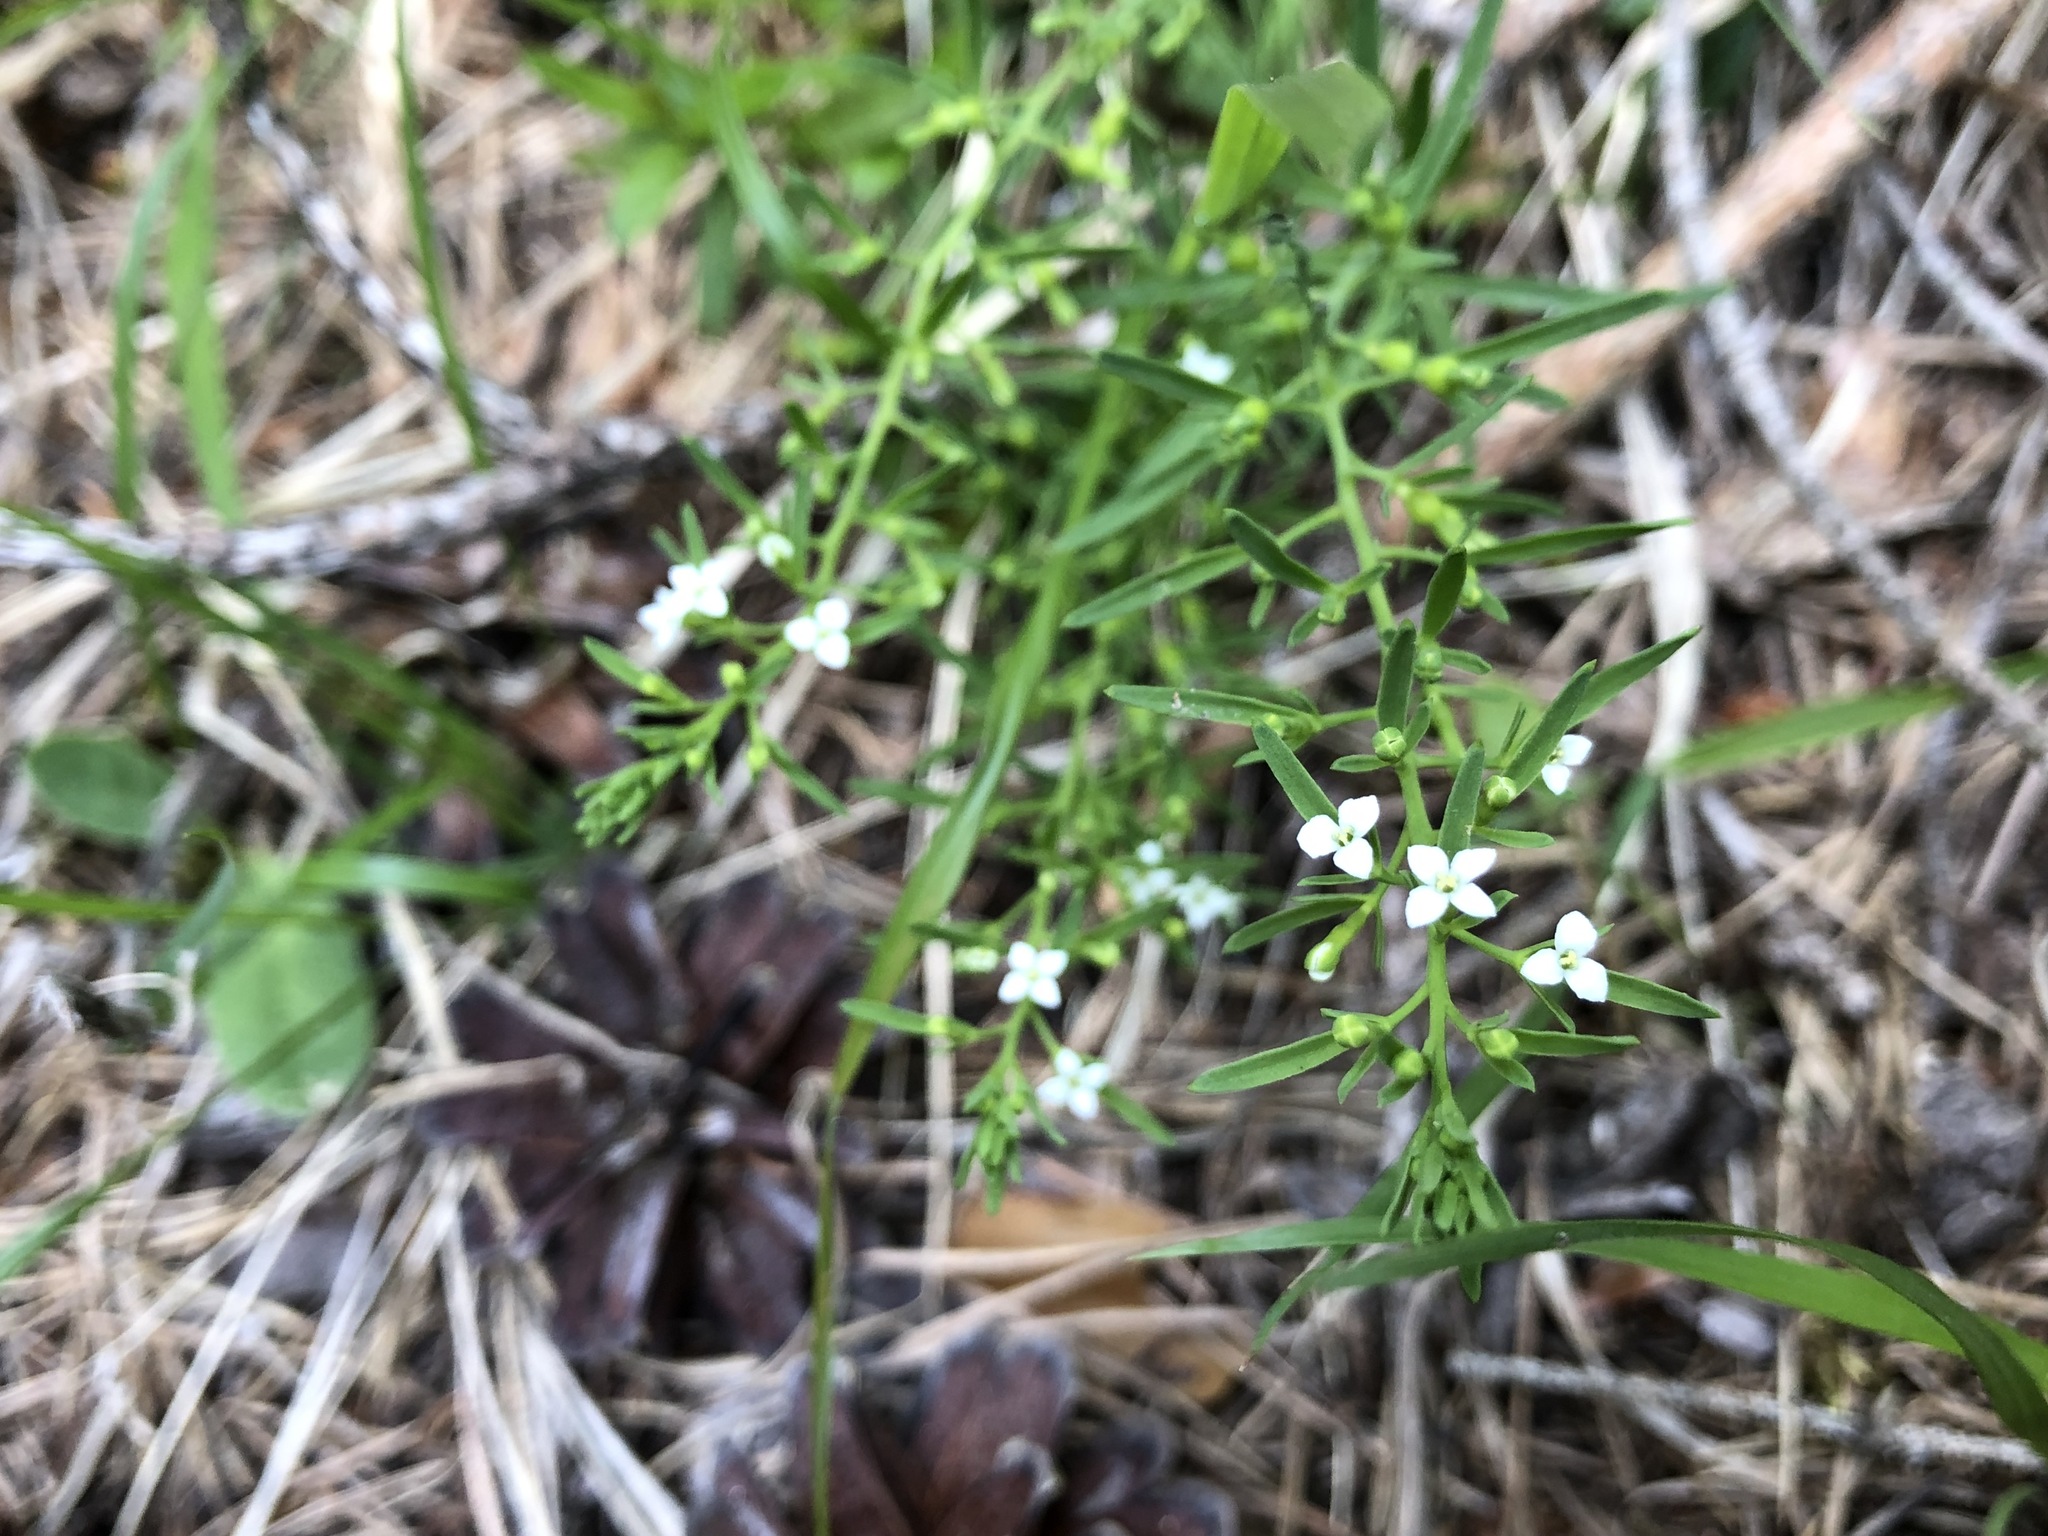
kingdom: Plantae
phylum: Tracheophyta
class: Magnoliopsida
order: Santalales
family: Thesiaceae
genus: Thesium
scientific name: Thesium alpinum
